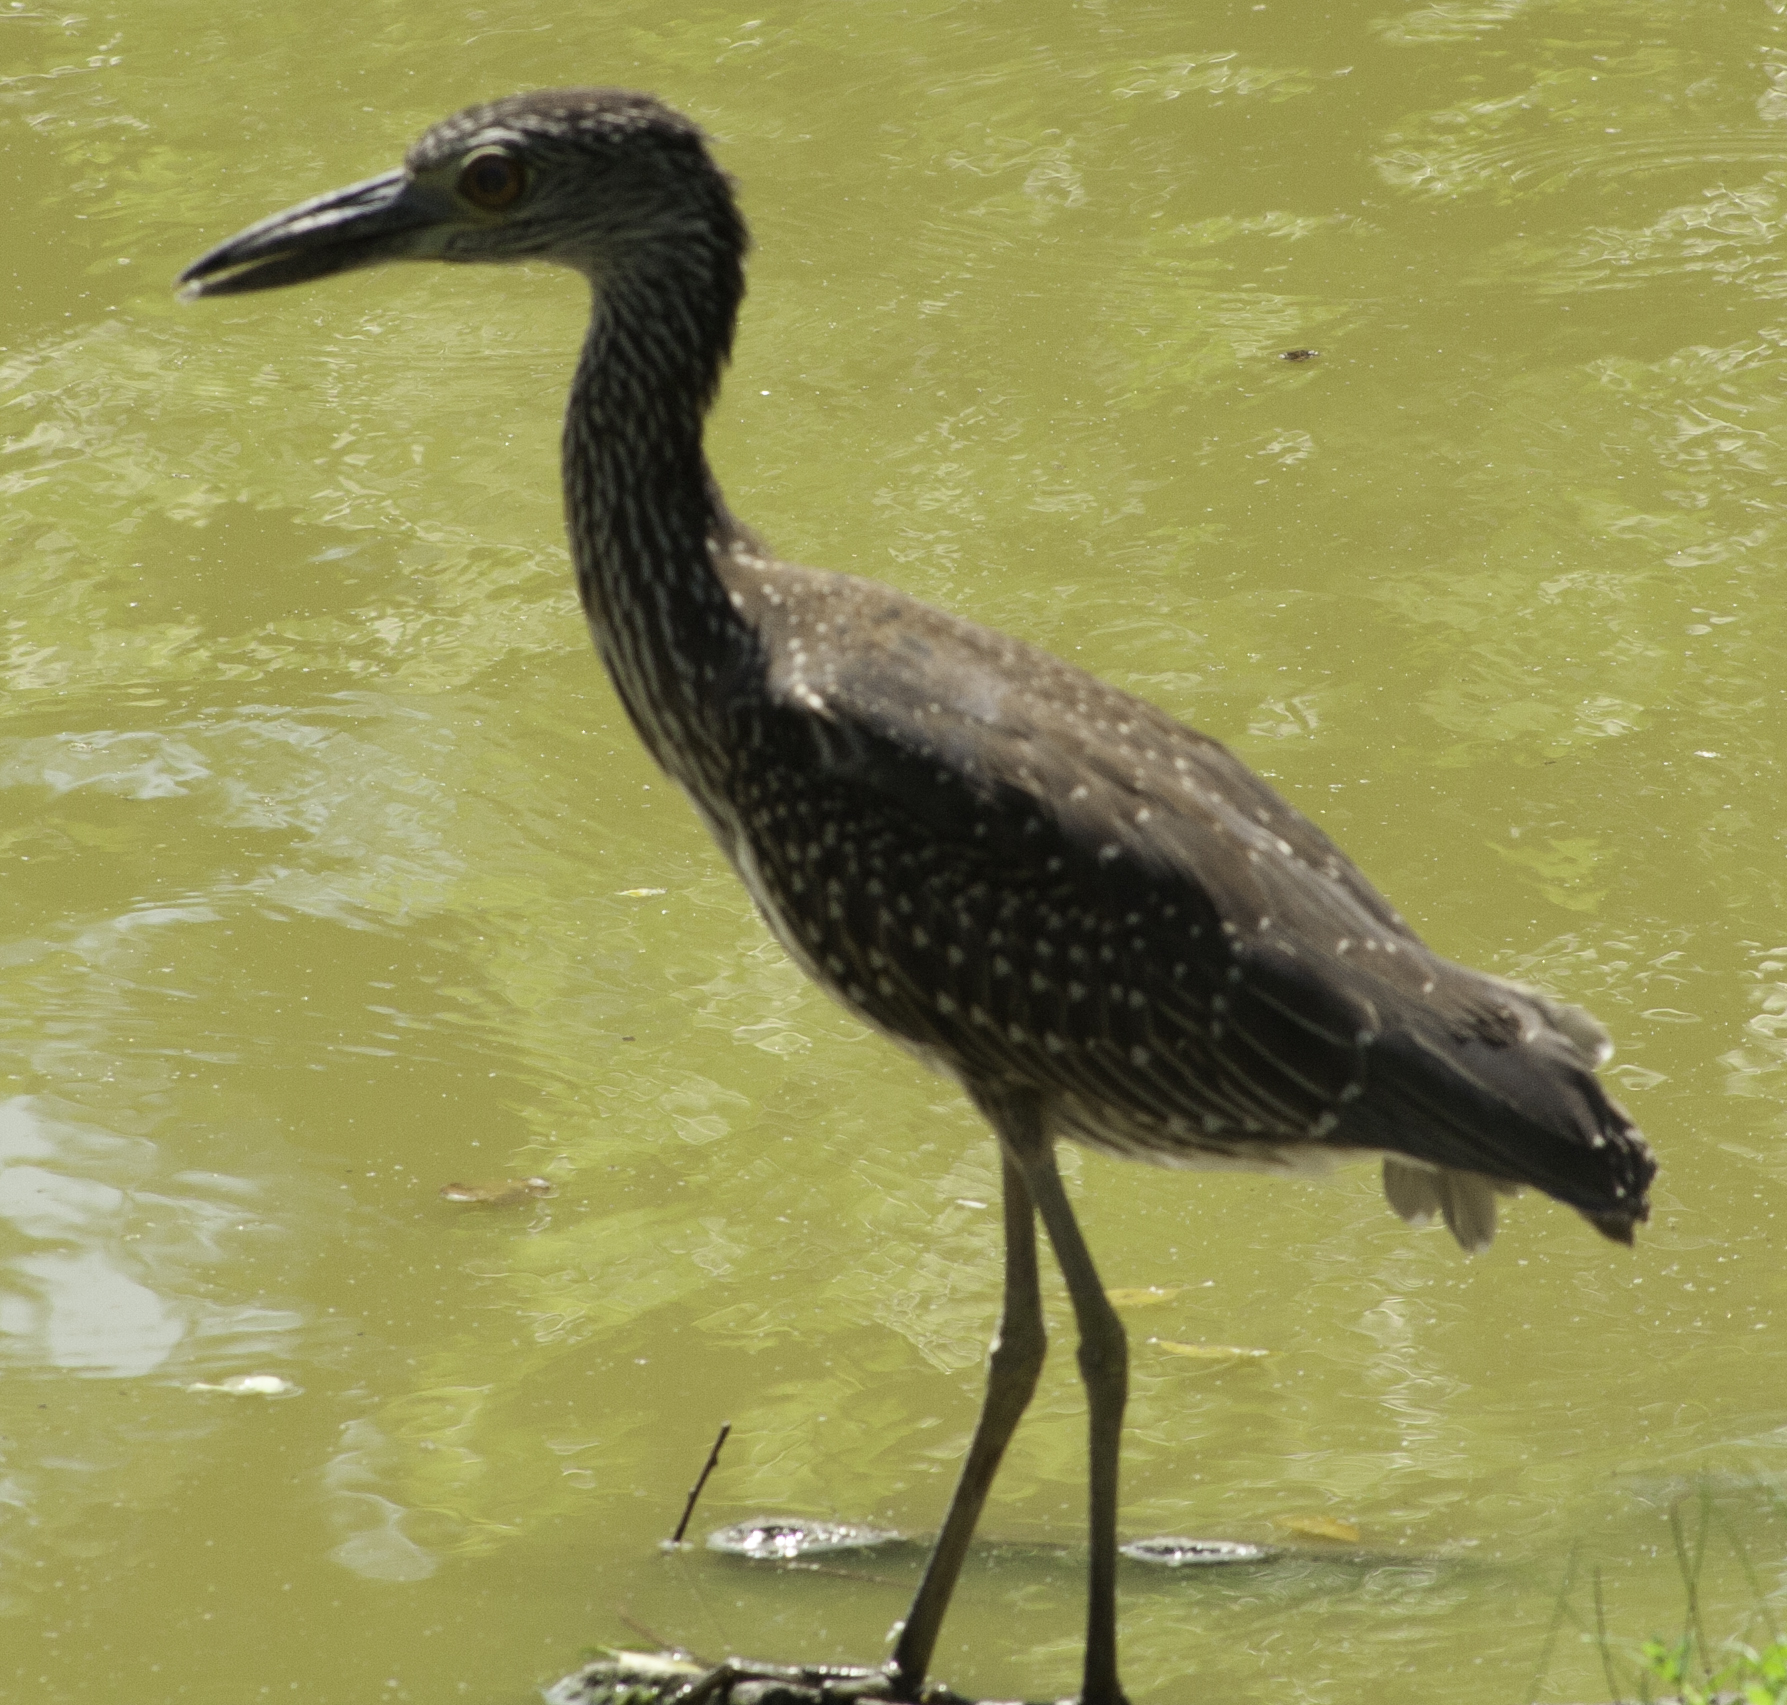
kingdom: Animalia
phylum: Chordata
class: Aves
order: Pelecaniformes
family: Ardeidae
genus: Nyctanassa
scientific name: Nyctanassa violacea
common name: Yellow-crowned night heron
